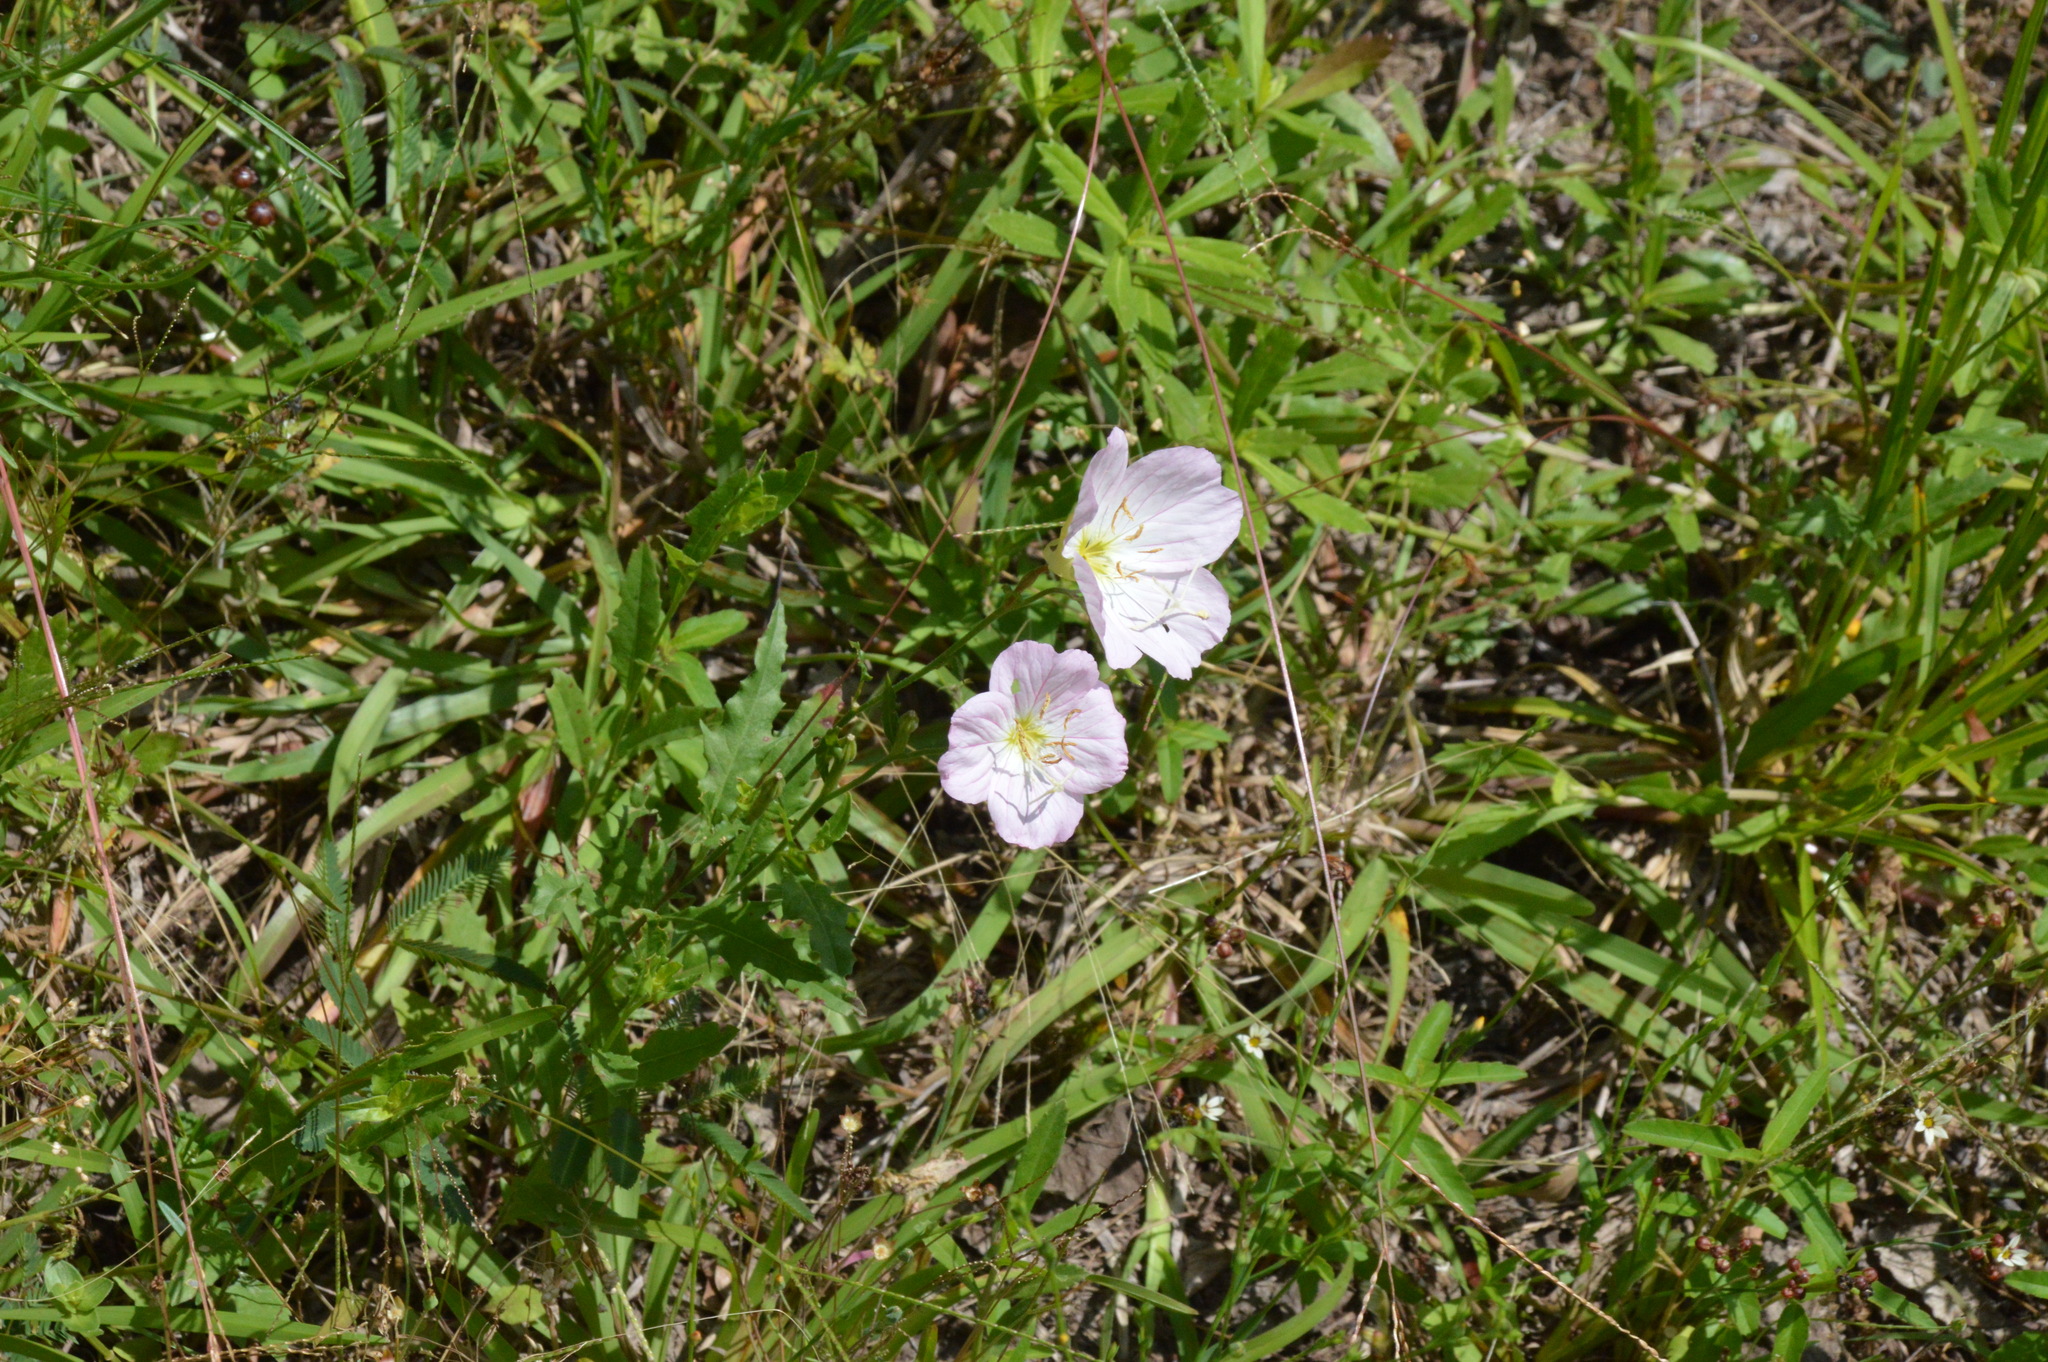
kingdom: Plantae
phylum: Tracheophyta
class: Magnoliopsida
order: Myrtales
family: Onagraceae
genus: Oenothera
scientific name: Oenothera speciosa
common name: White evening-primrose
